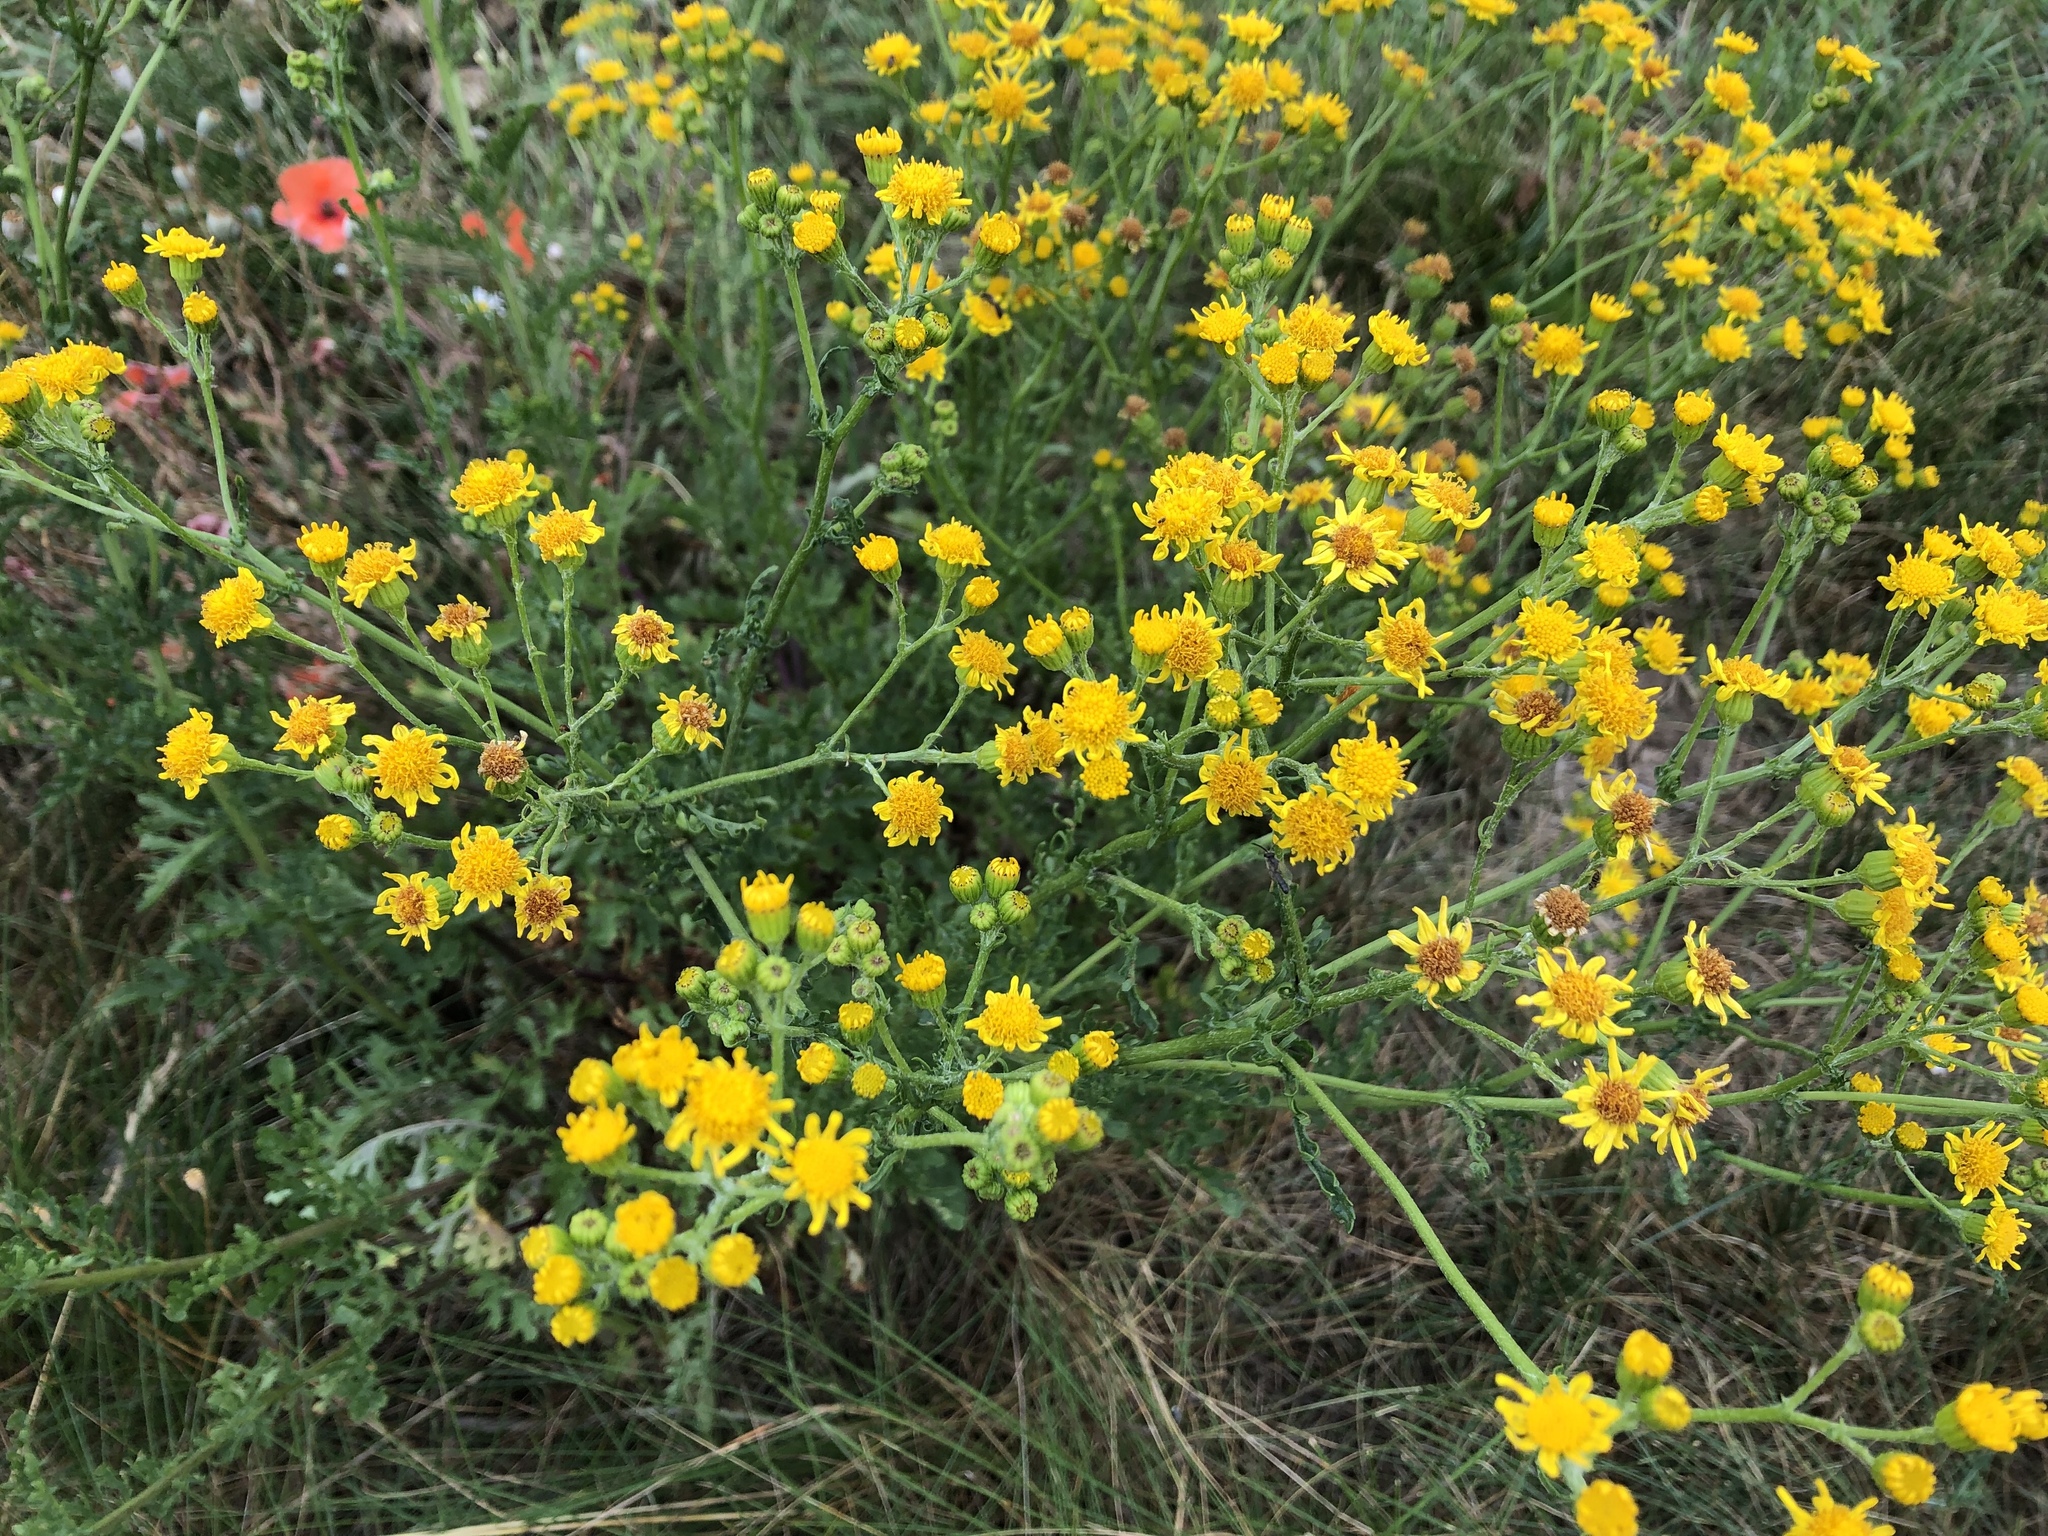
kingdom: Plantae
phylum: Tracheophyta
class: Magnoliopsida
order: Asterales
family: Asteraceae
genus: Jacobaea
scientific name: Jacobaea vulgaris
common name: Stinking willie
